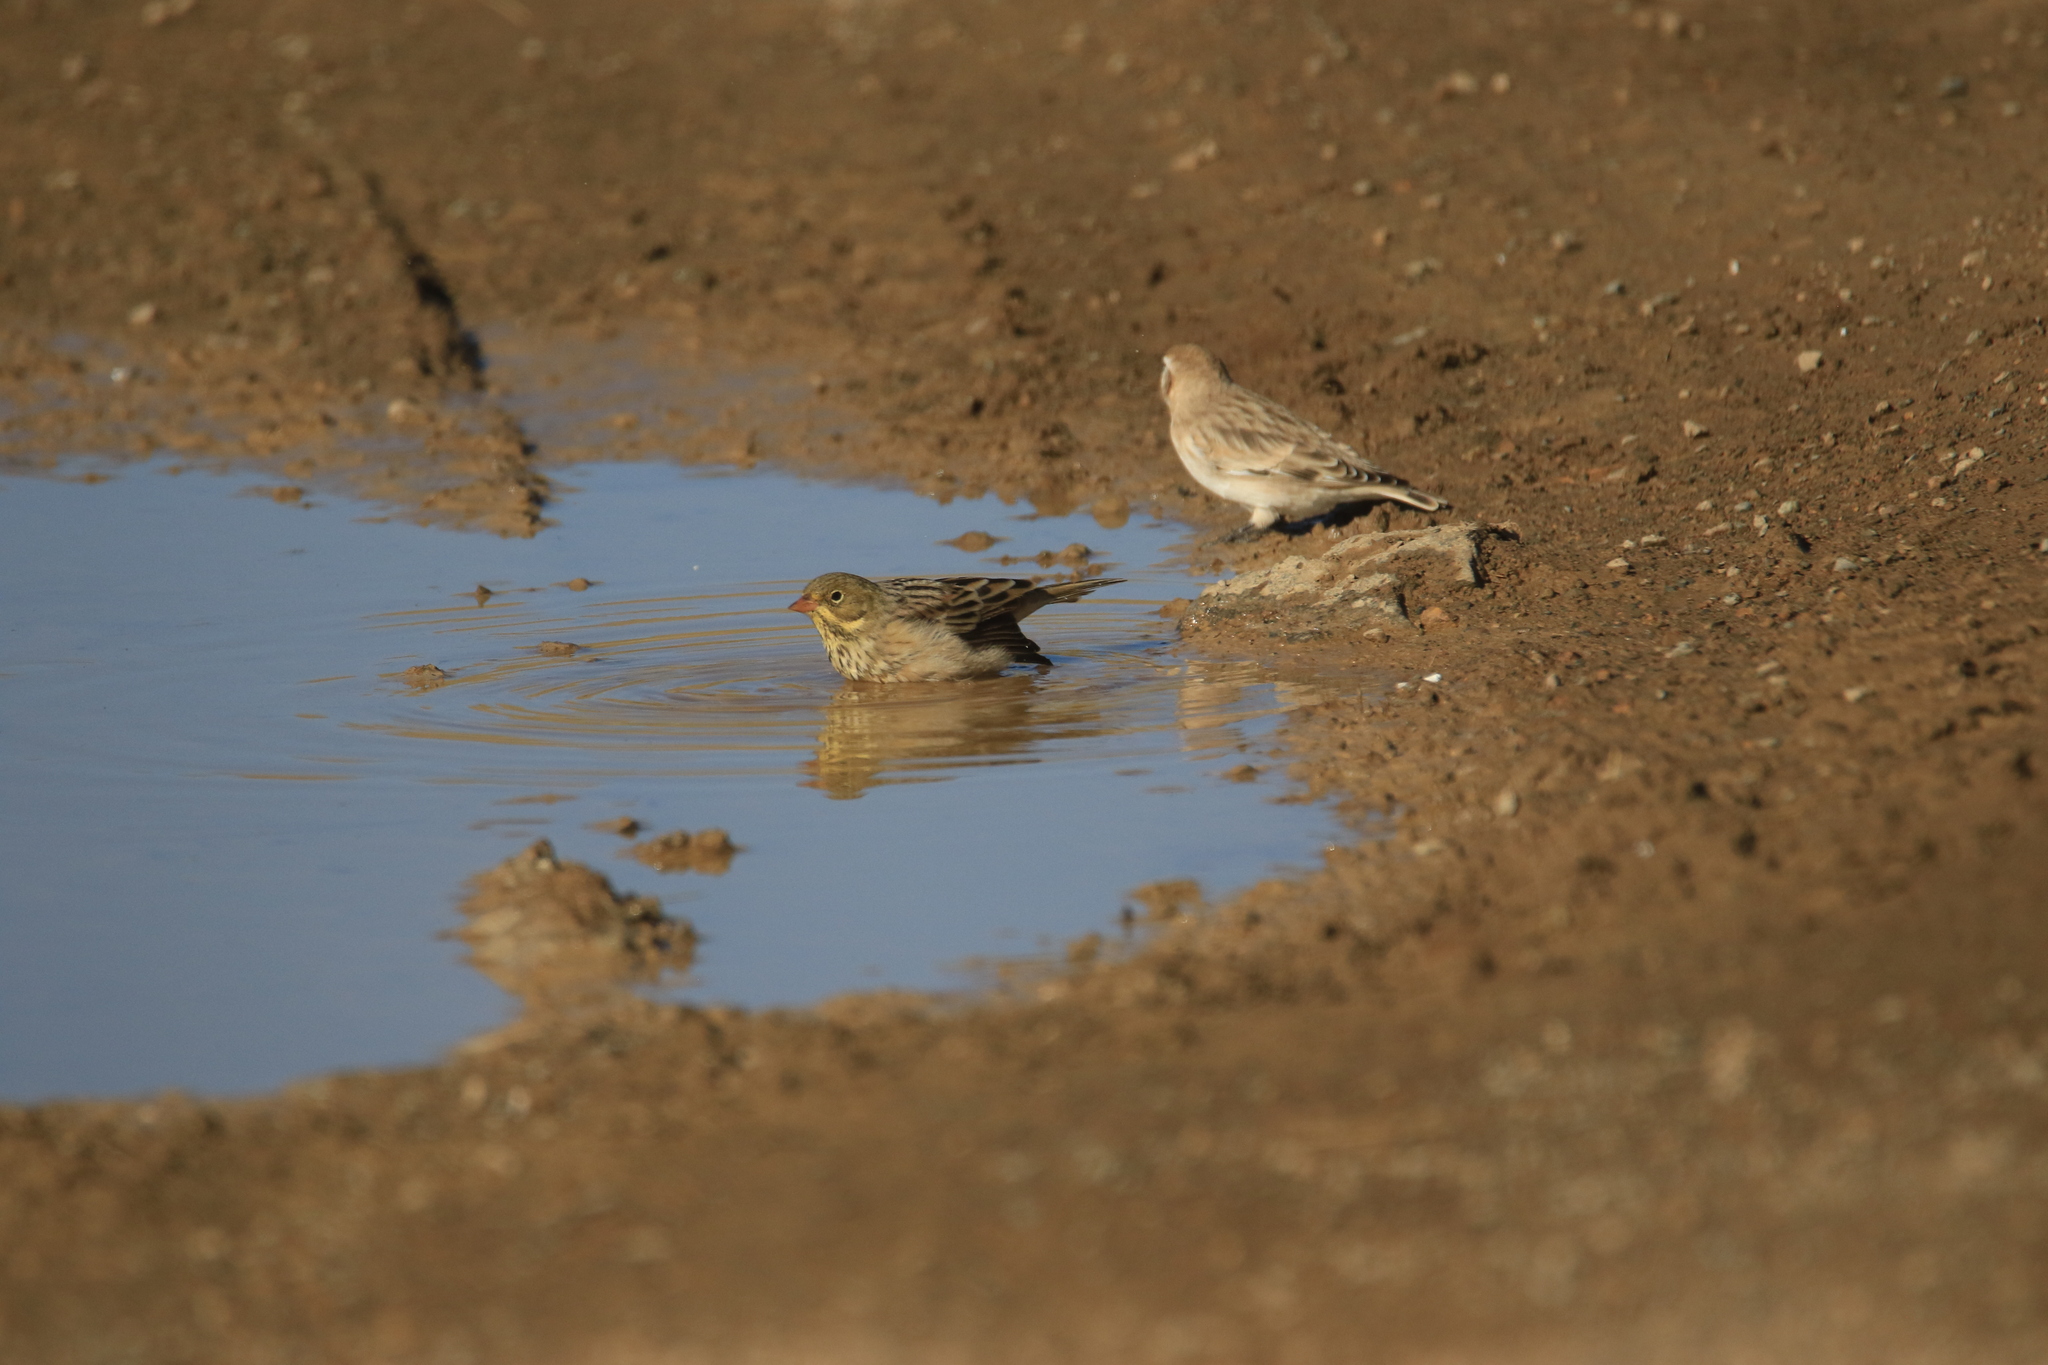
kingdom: Animalia
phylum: Chordata
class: Aves
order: Passeriformes
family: Emberizidae
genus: Emberiza
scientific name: Emberiza hortulana
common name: Ortolan bunting
